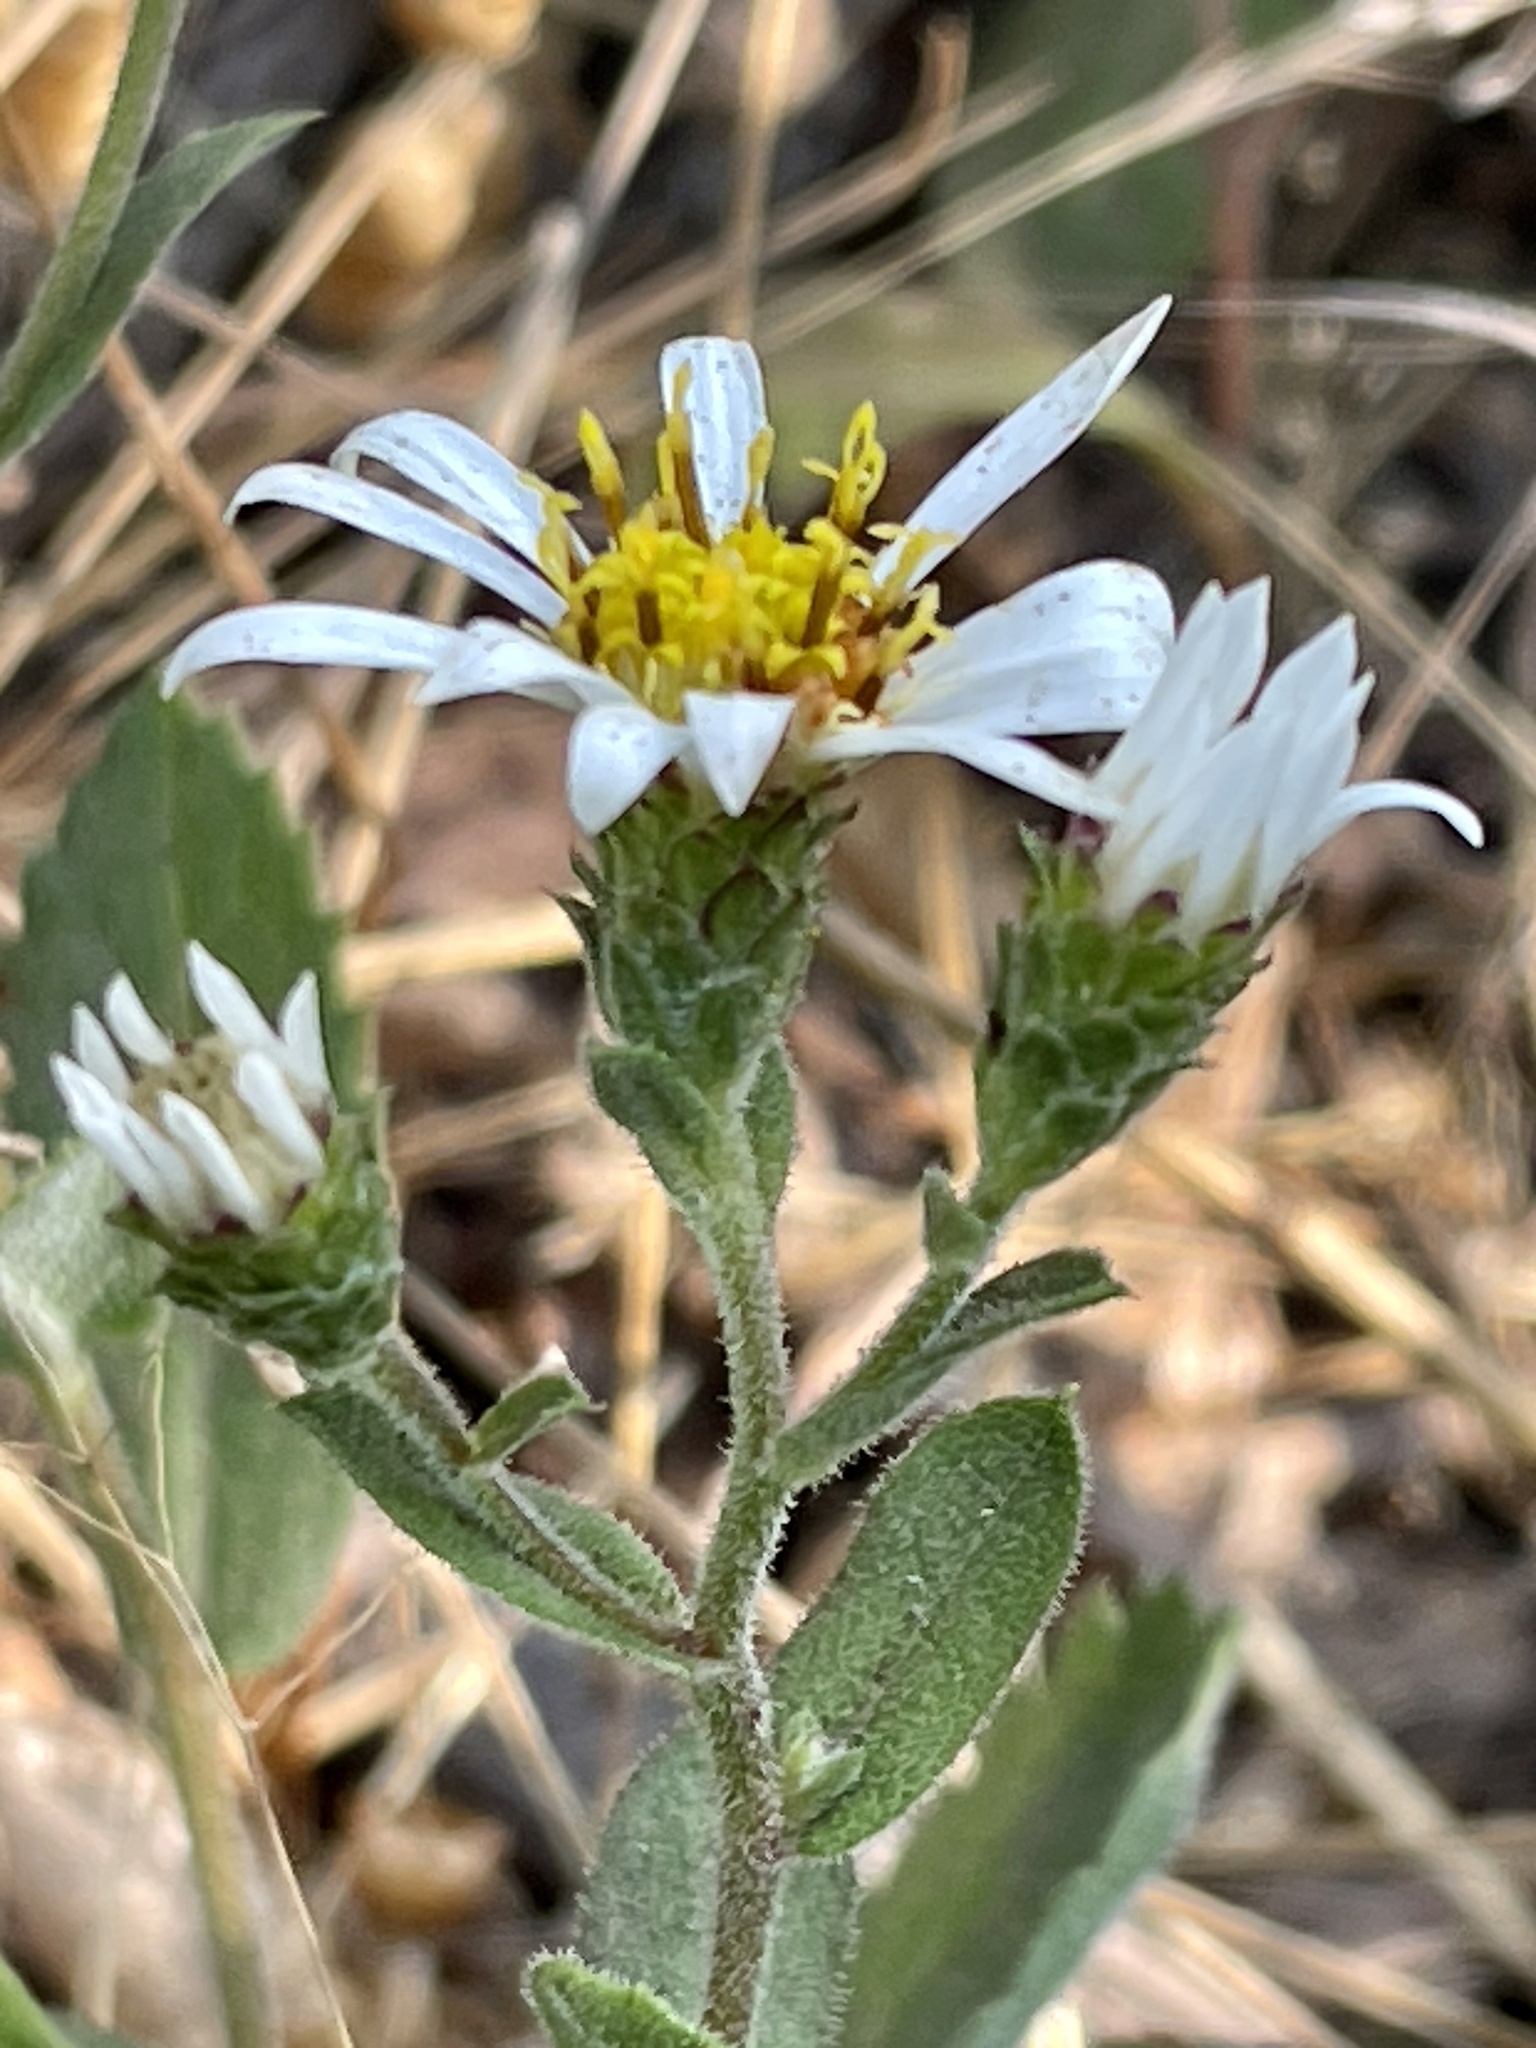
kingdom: Plantae
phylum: Tracheophyta
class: Magnoliopsida
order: Asterales
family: Asteraceae
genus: Eurybia
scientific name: Eurybia radulina
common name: Rough-leaved aster
